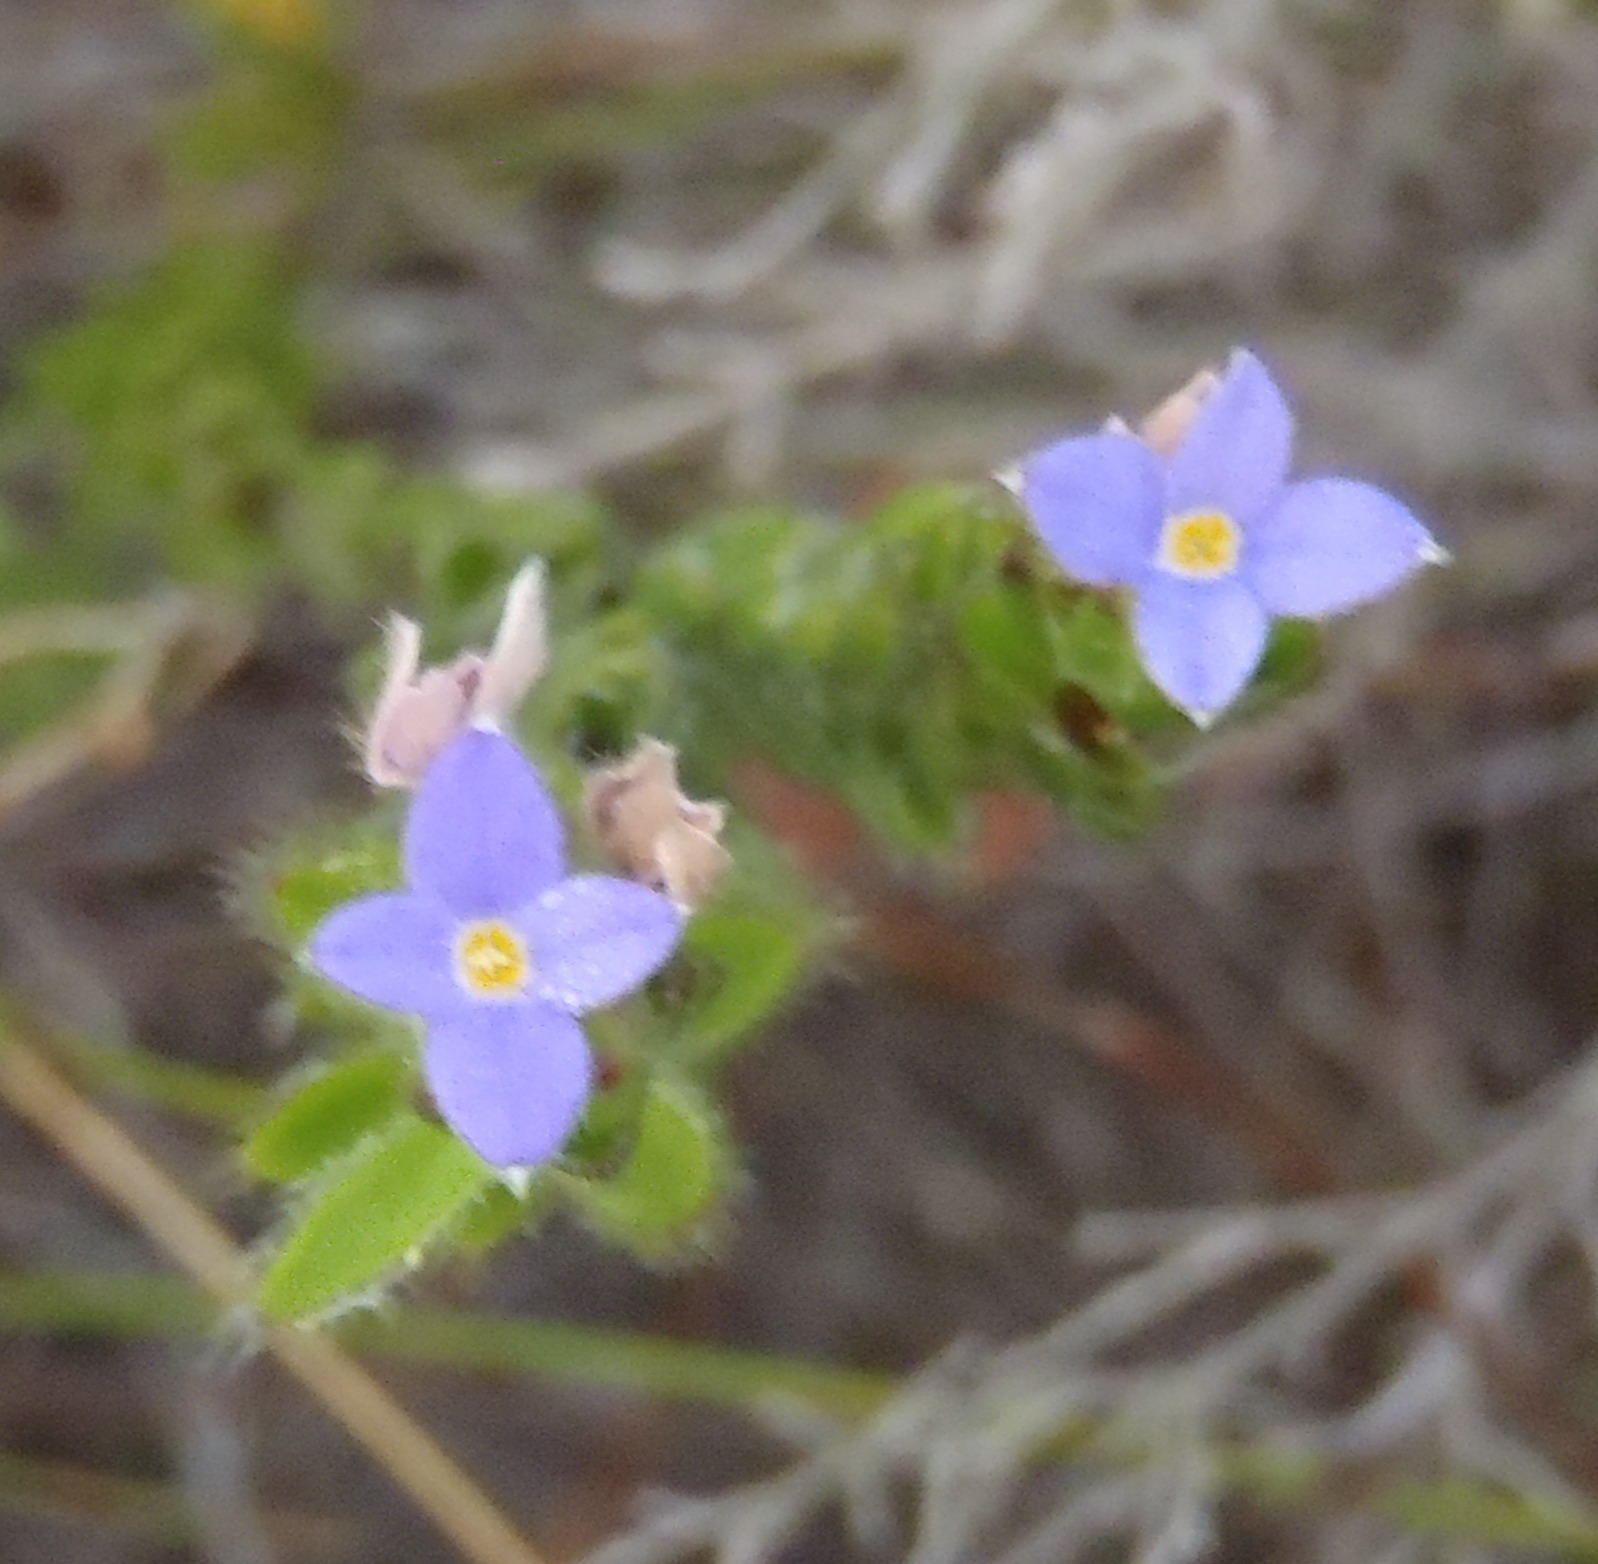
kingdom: Plantae
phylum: Tracheophyta
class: Magnoliopsida
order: Malvales
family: Thymelaeaceae
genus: Gnidia
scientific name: Gnidia penicillata
